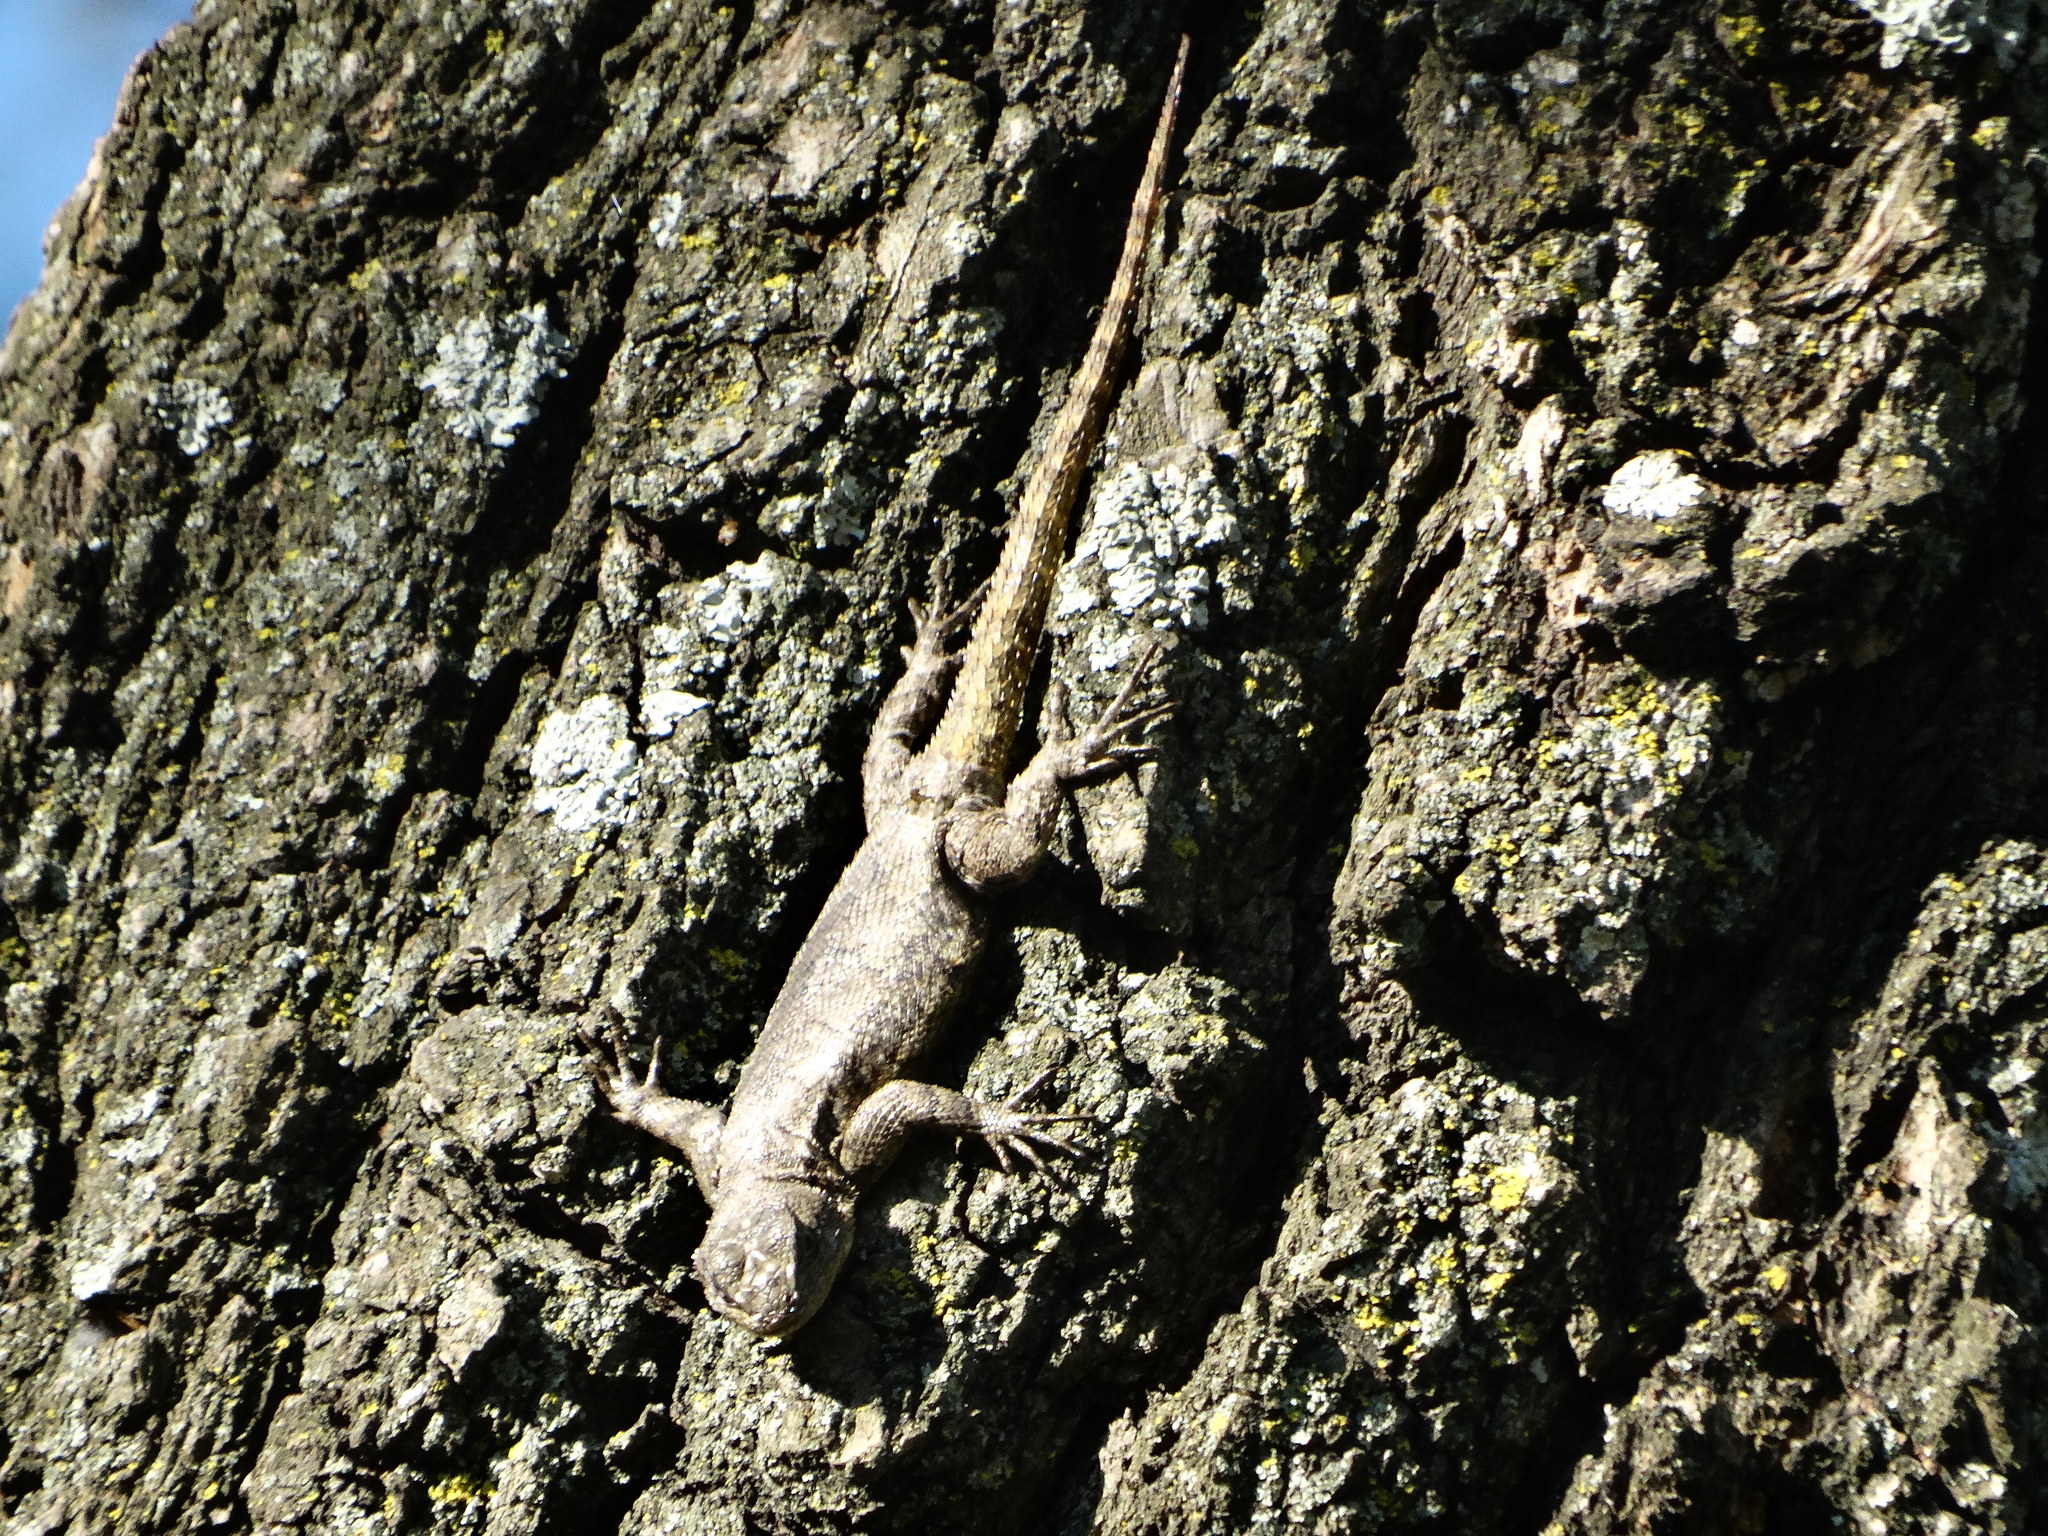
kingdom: Animalia
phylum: Chordata
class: Squamata
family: Phrynosomatidae
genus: Sceloporus
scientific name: Sceloporus grammicus
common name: Mesquite lizard
